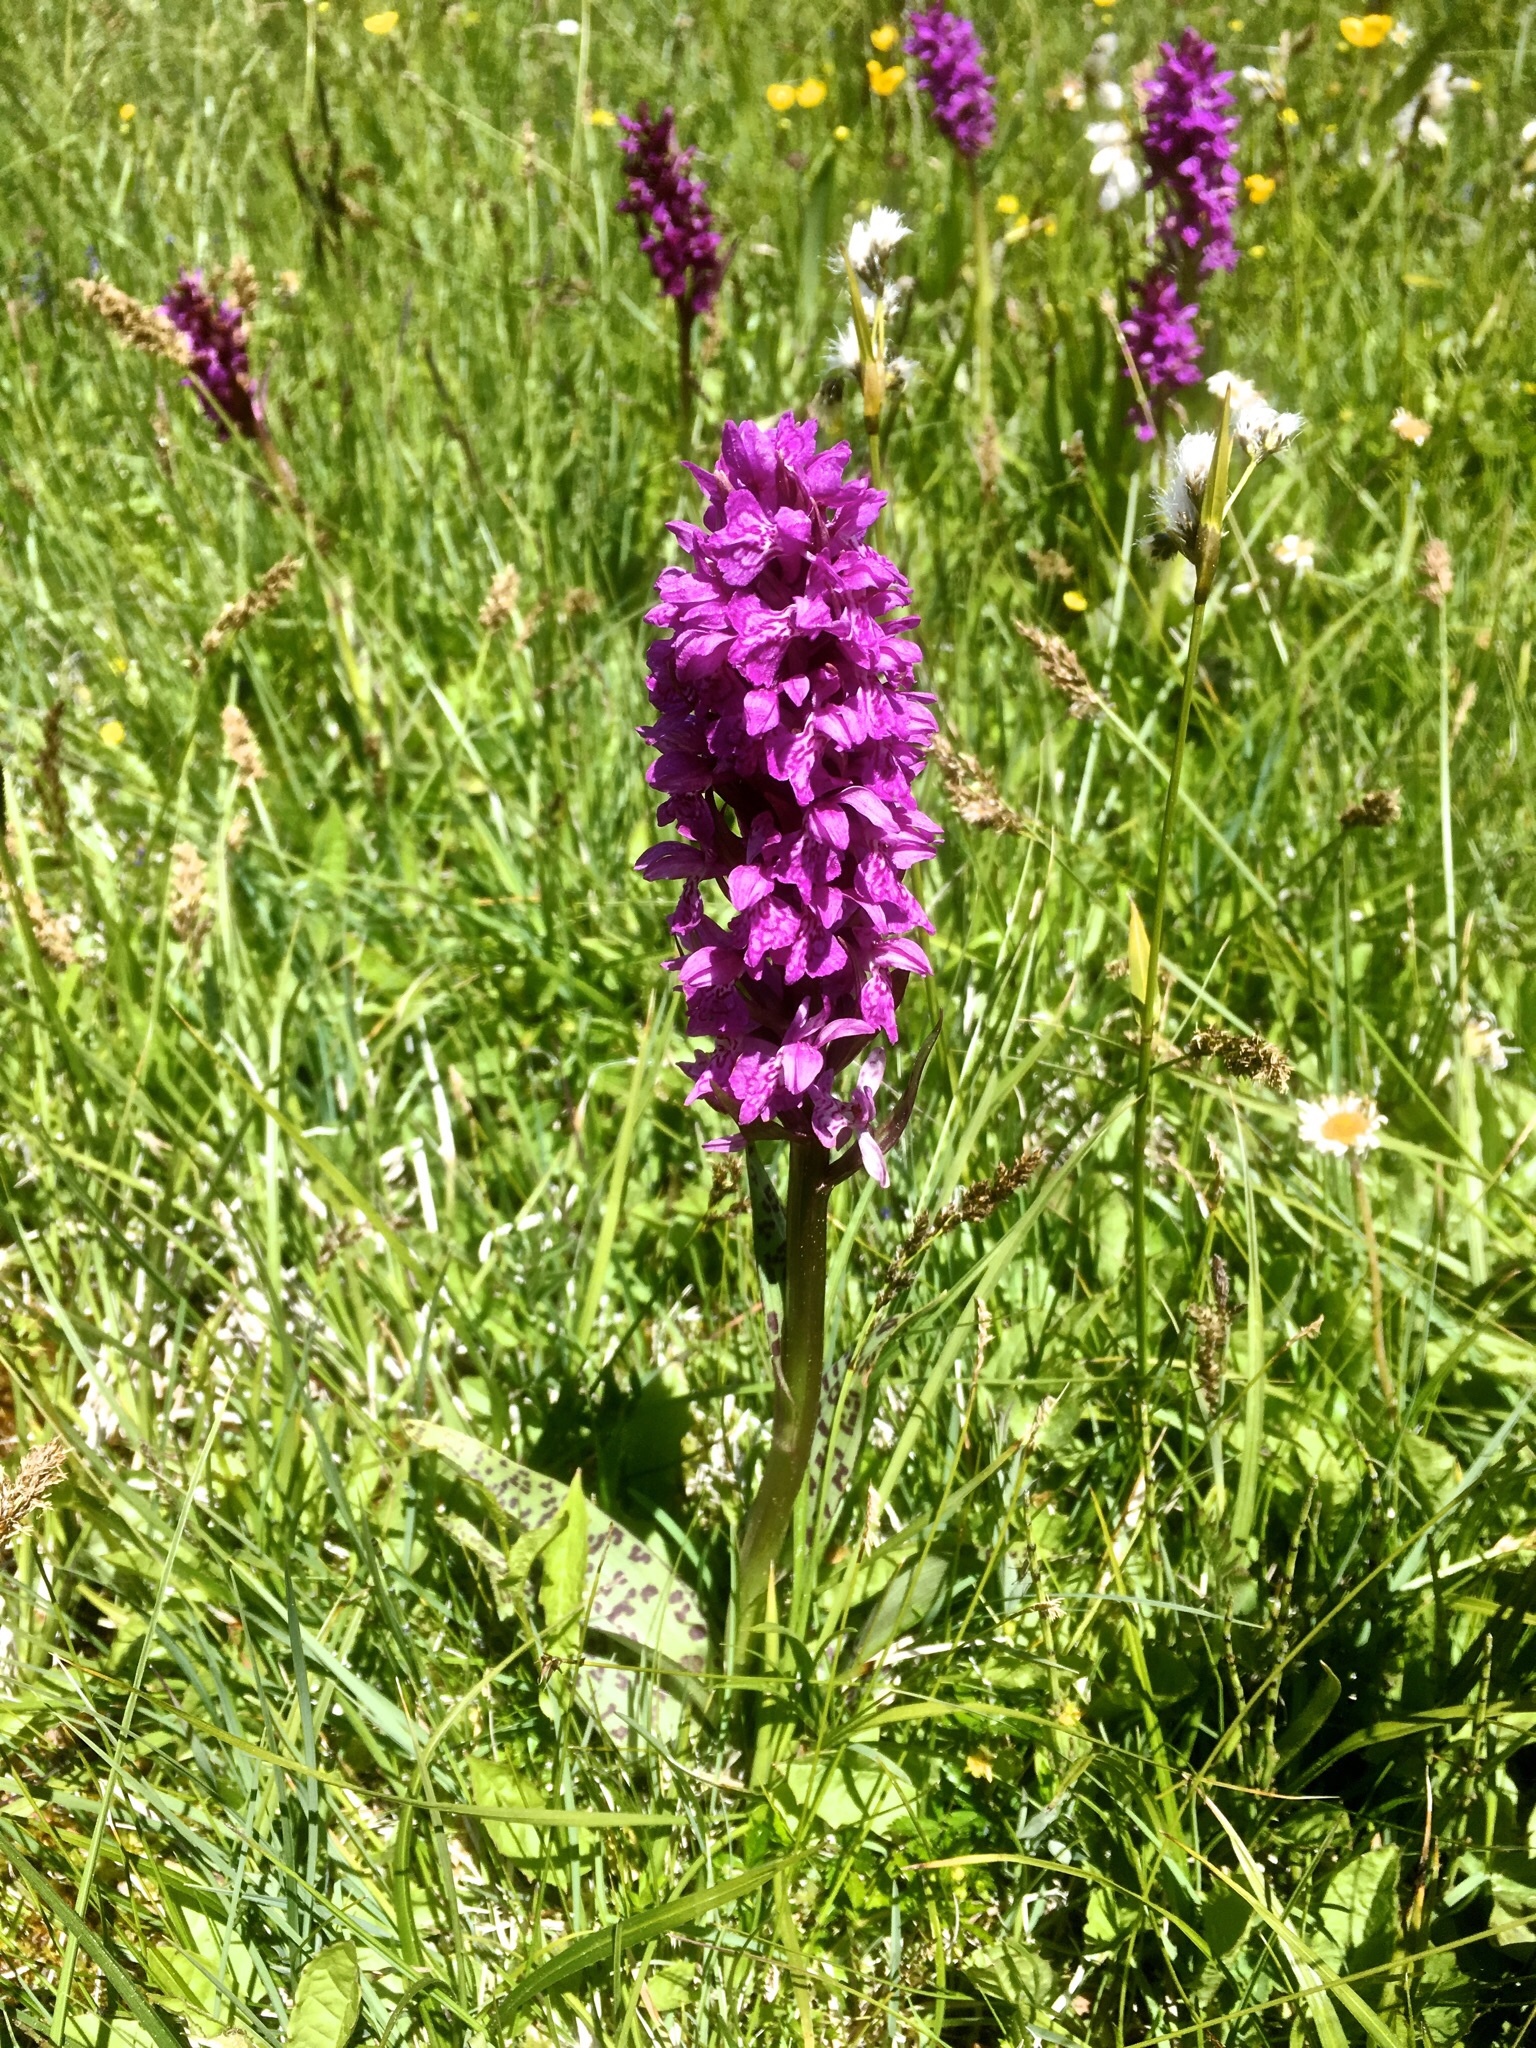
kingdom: Plantae
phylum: Tracheophyta
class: Liliopsida
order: Asparagales
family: Orchidaceae
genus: Dactylorhiza
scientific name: Dactylorhiza majalis
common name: Marsh orchid
